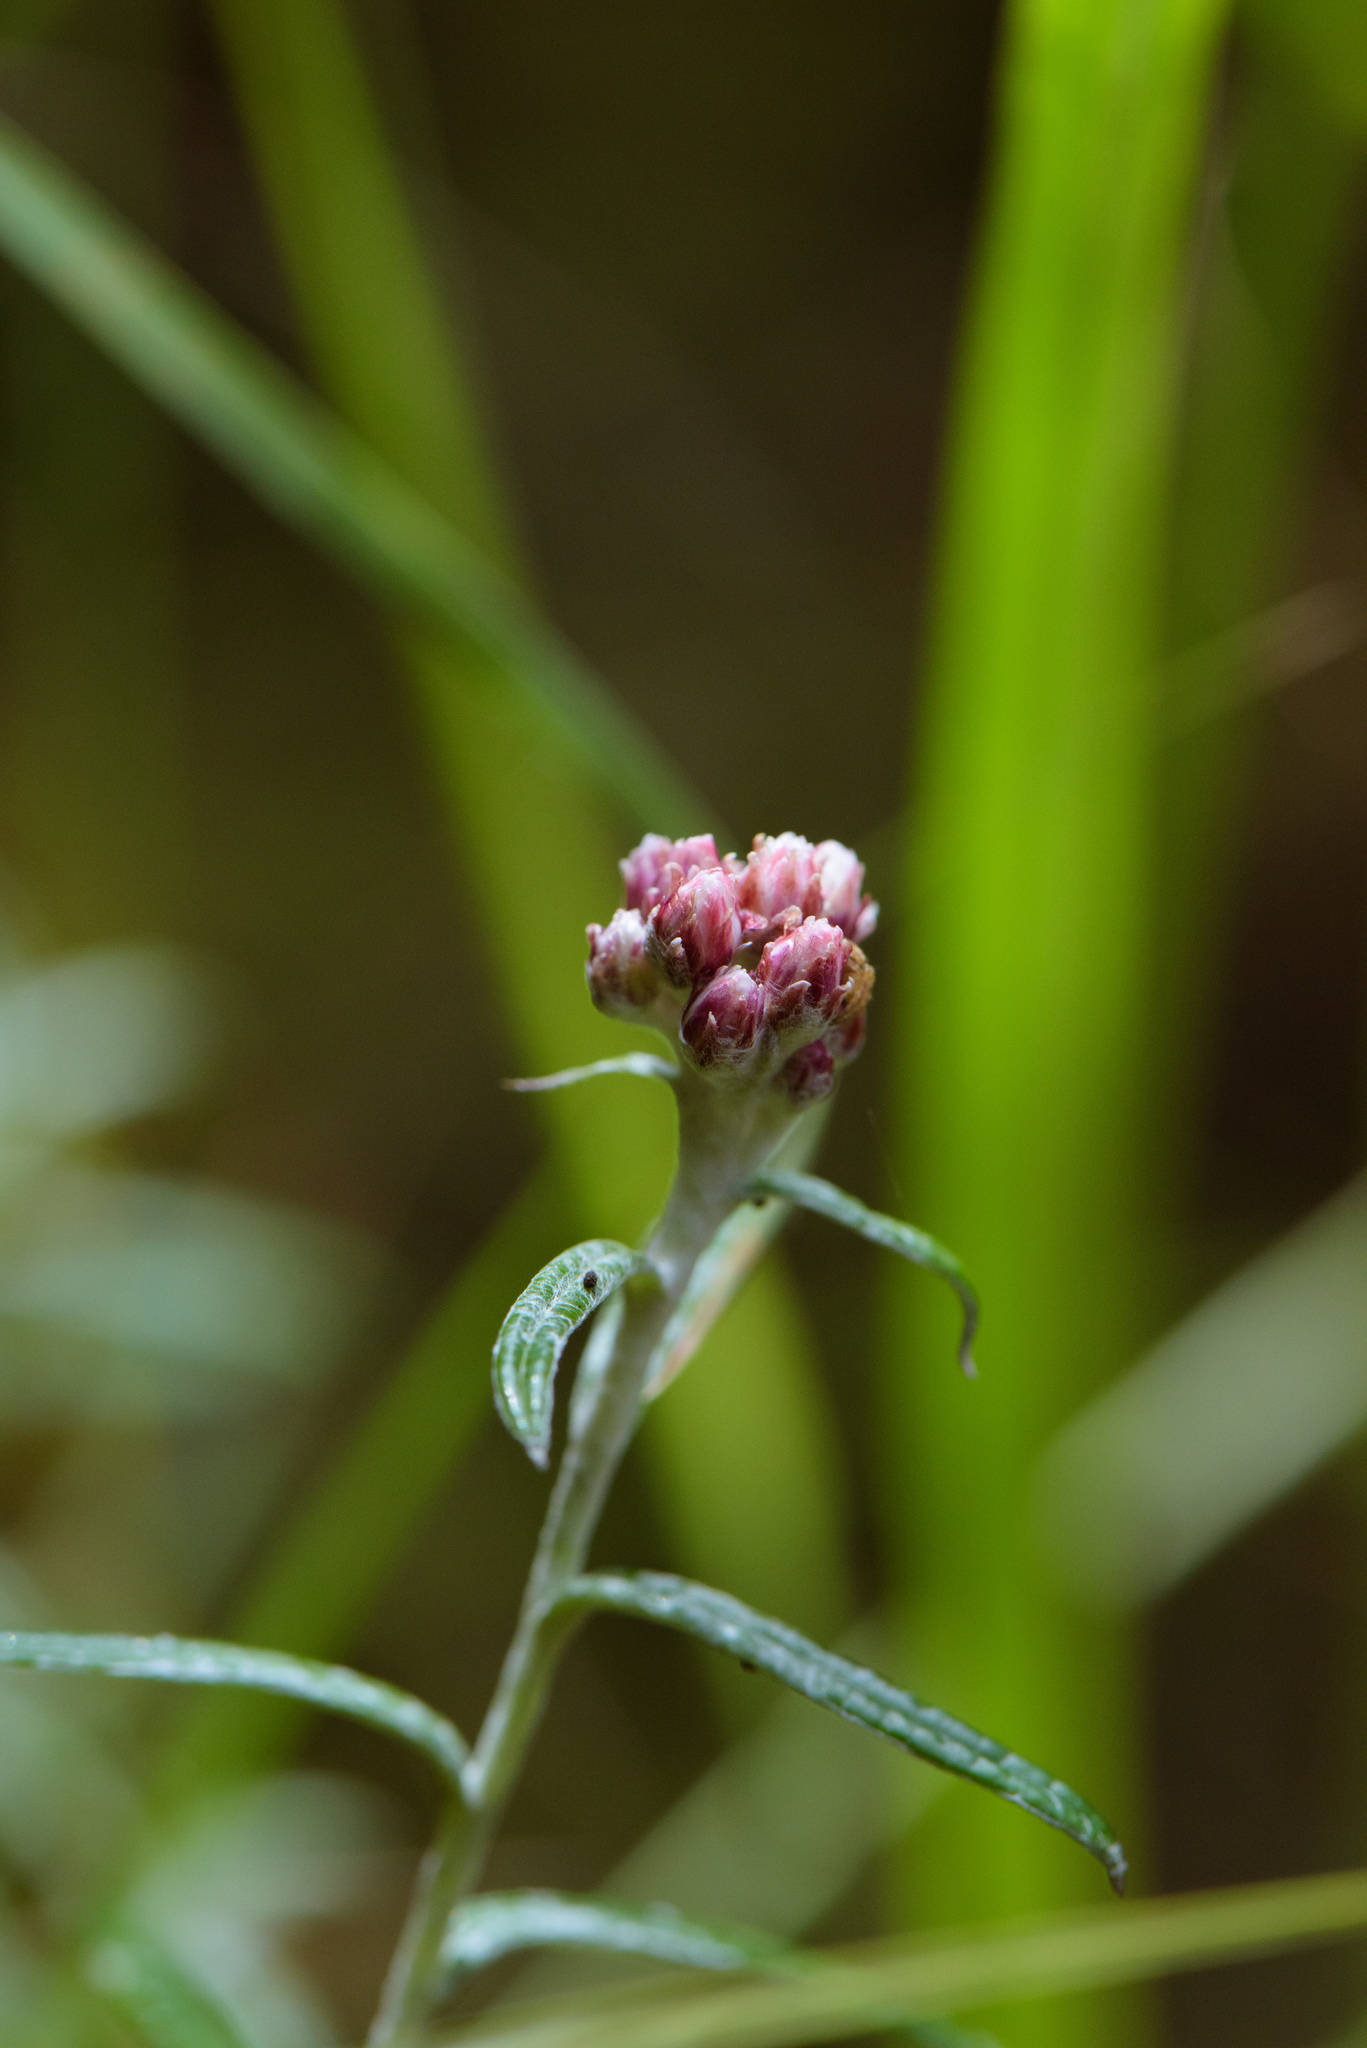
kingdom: Plantae
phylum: Tracheophyta
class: Magnoliopsida
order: Asterales
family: Asteraceae
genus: Anaphalis
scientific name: Anaphalis morrisonicola
